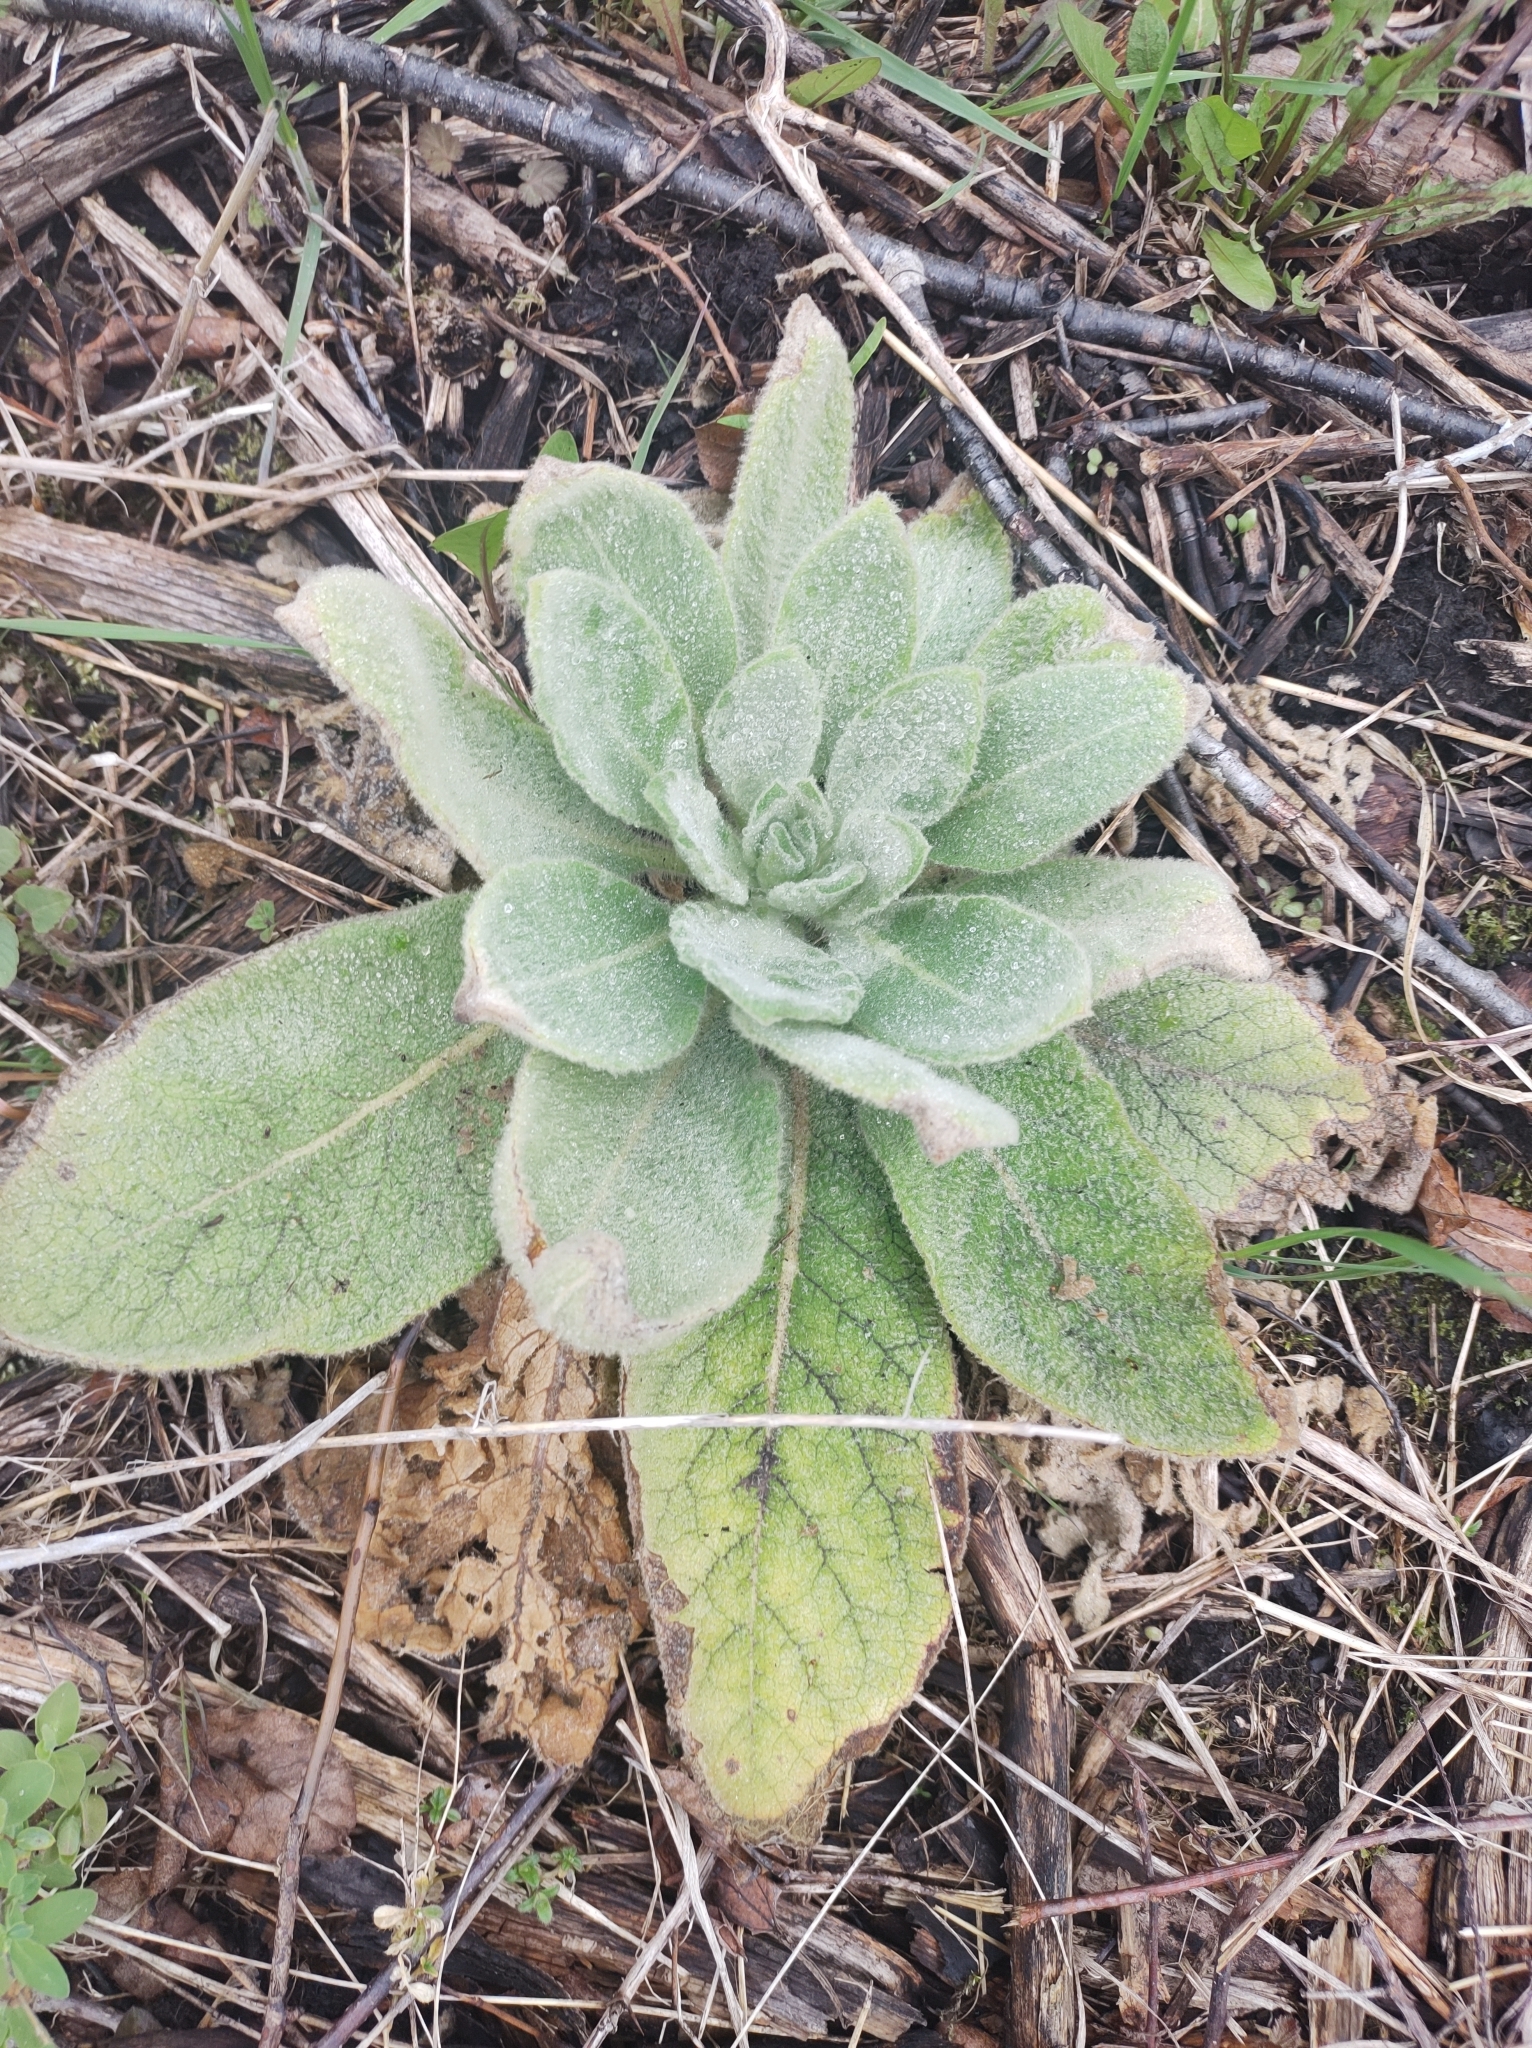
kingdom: Plantae
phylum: Tracheophyta
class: Magnoliopsida
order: Lamiales
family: Scrophulariaceae
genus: Verbascum
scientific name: Verbascum thapsus
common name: Common mullein
